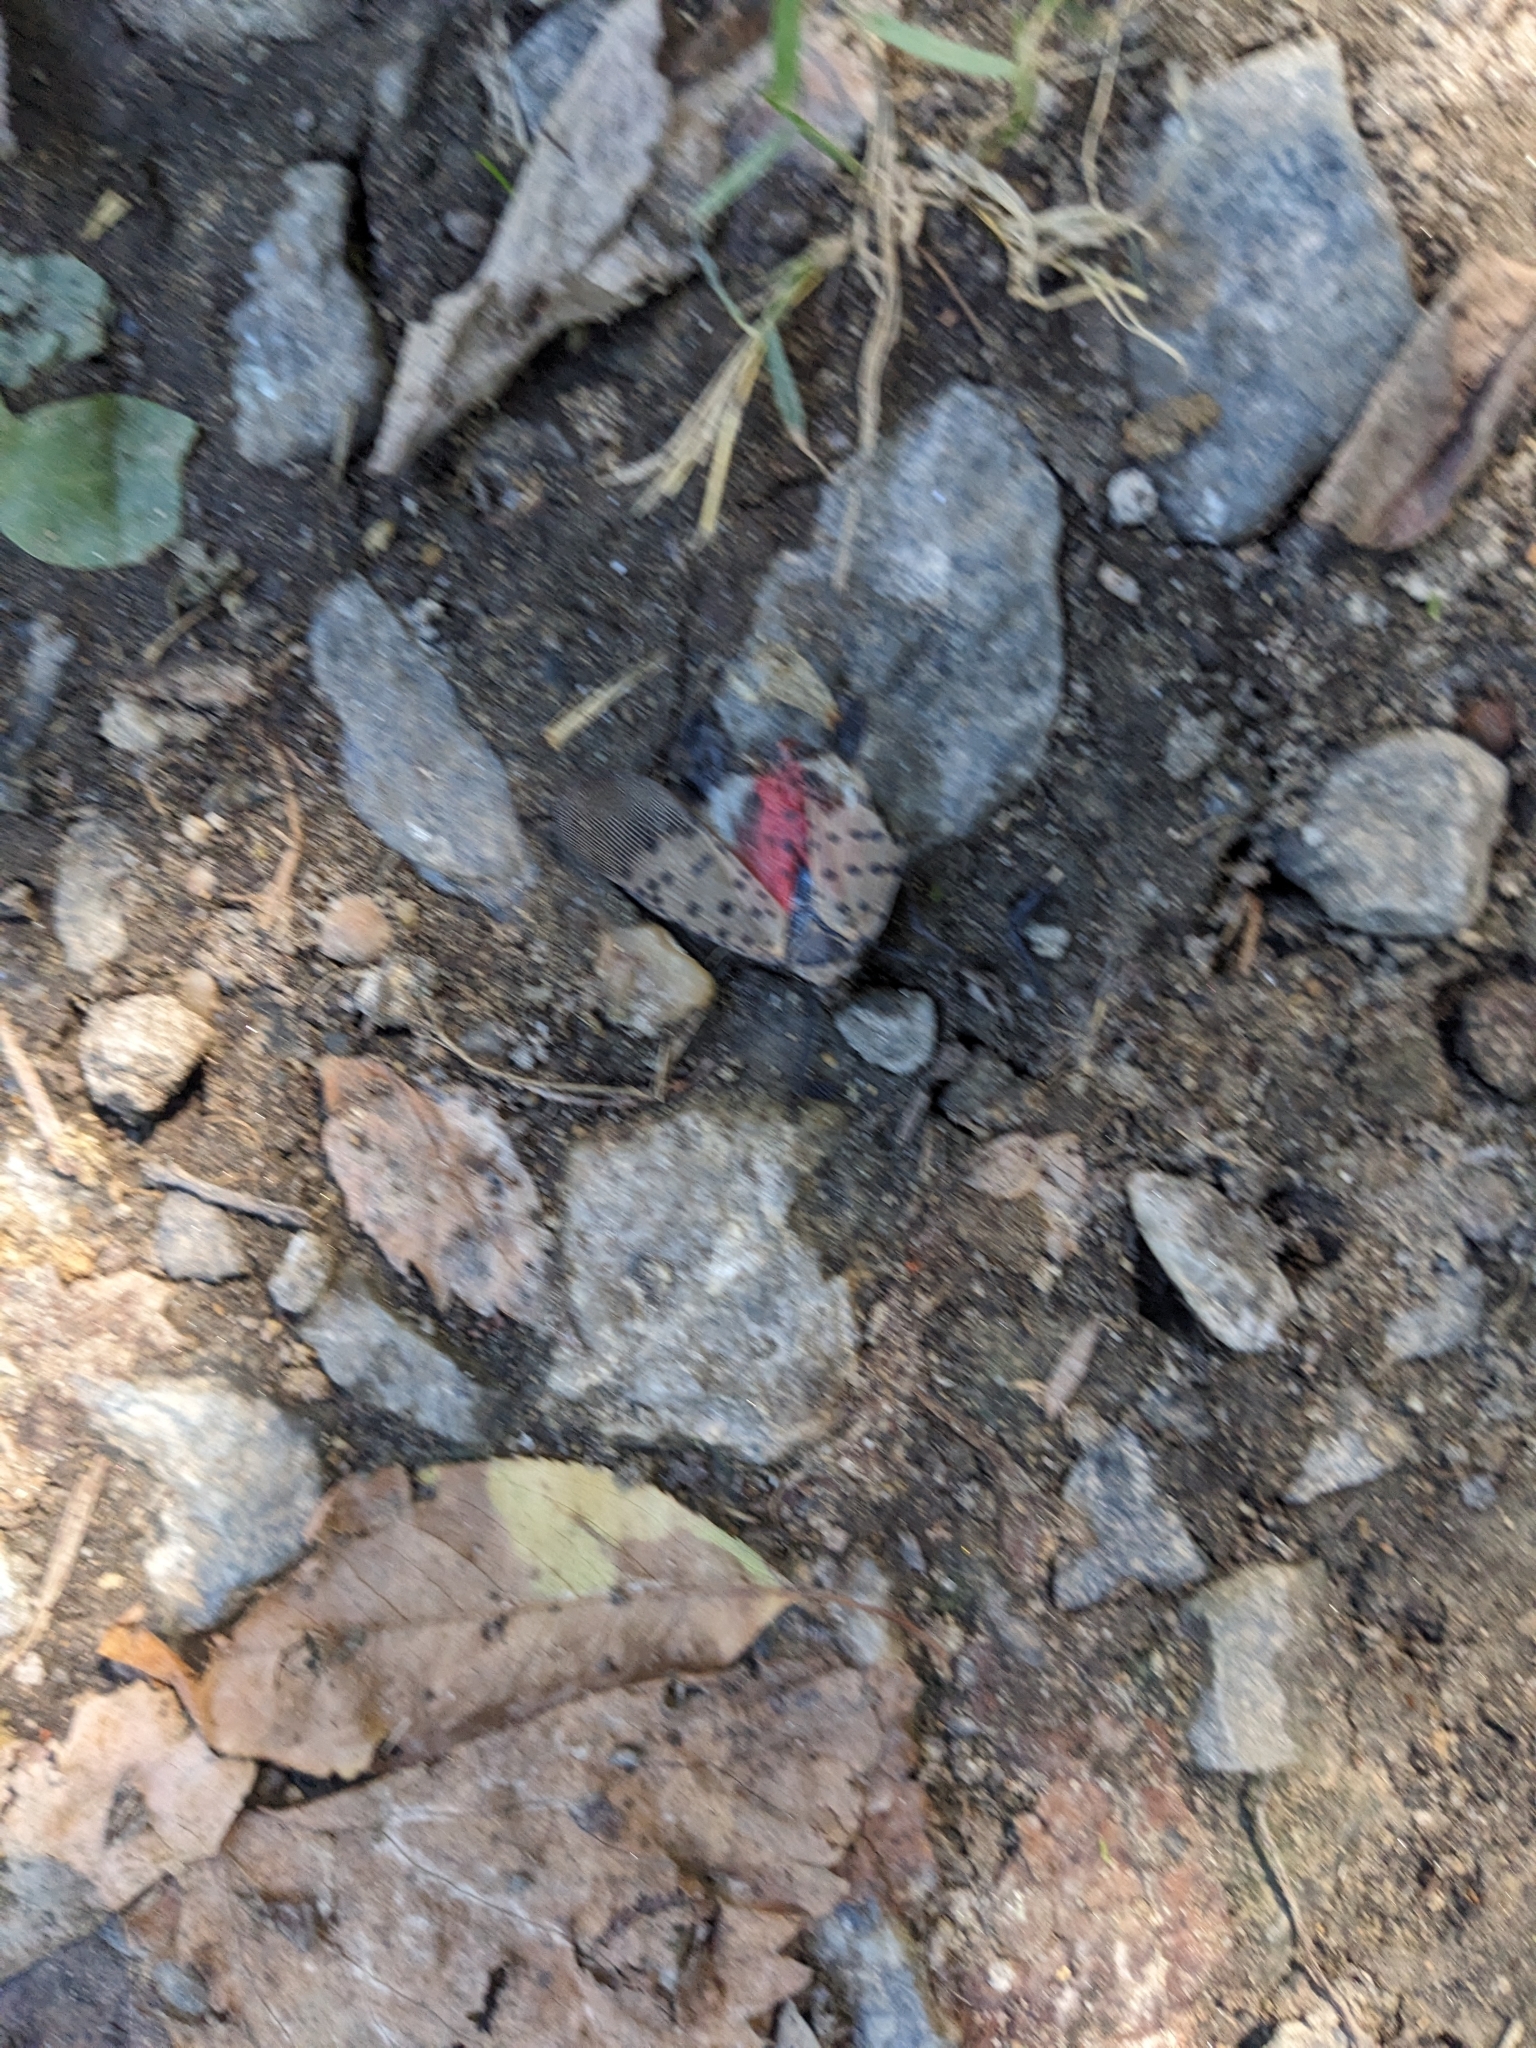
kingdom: Animalia
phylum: Arthropoda
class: Insecta
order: Hemiptera
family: Fulgoridae
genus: Lycorma
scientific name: Lycorma delicatula
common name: Spotted lanternfly
